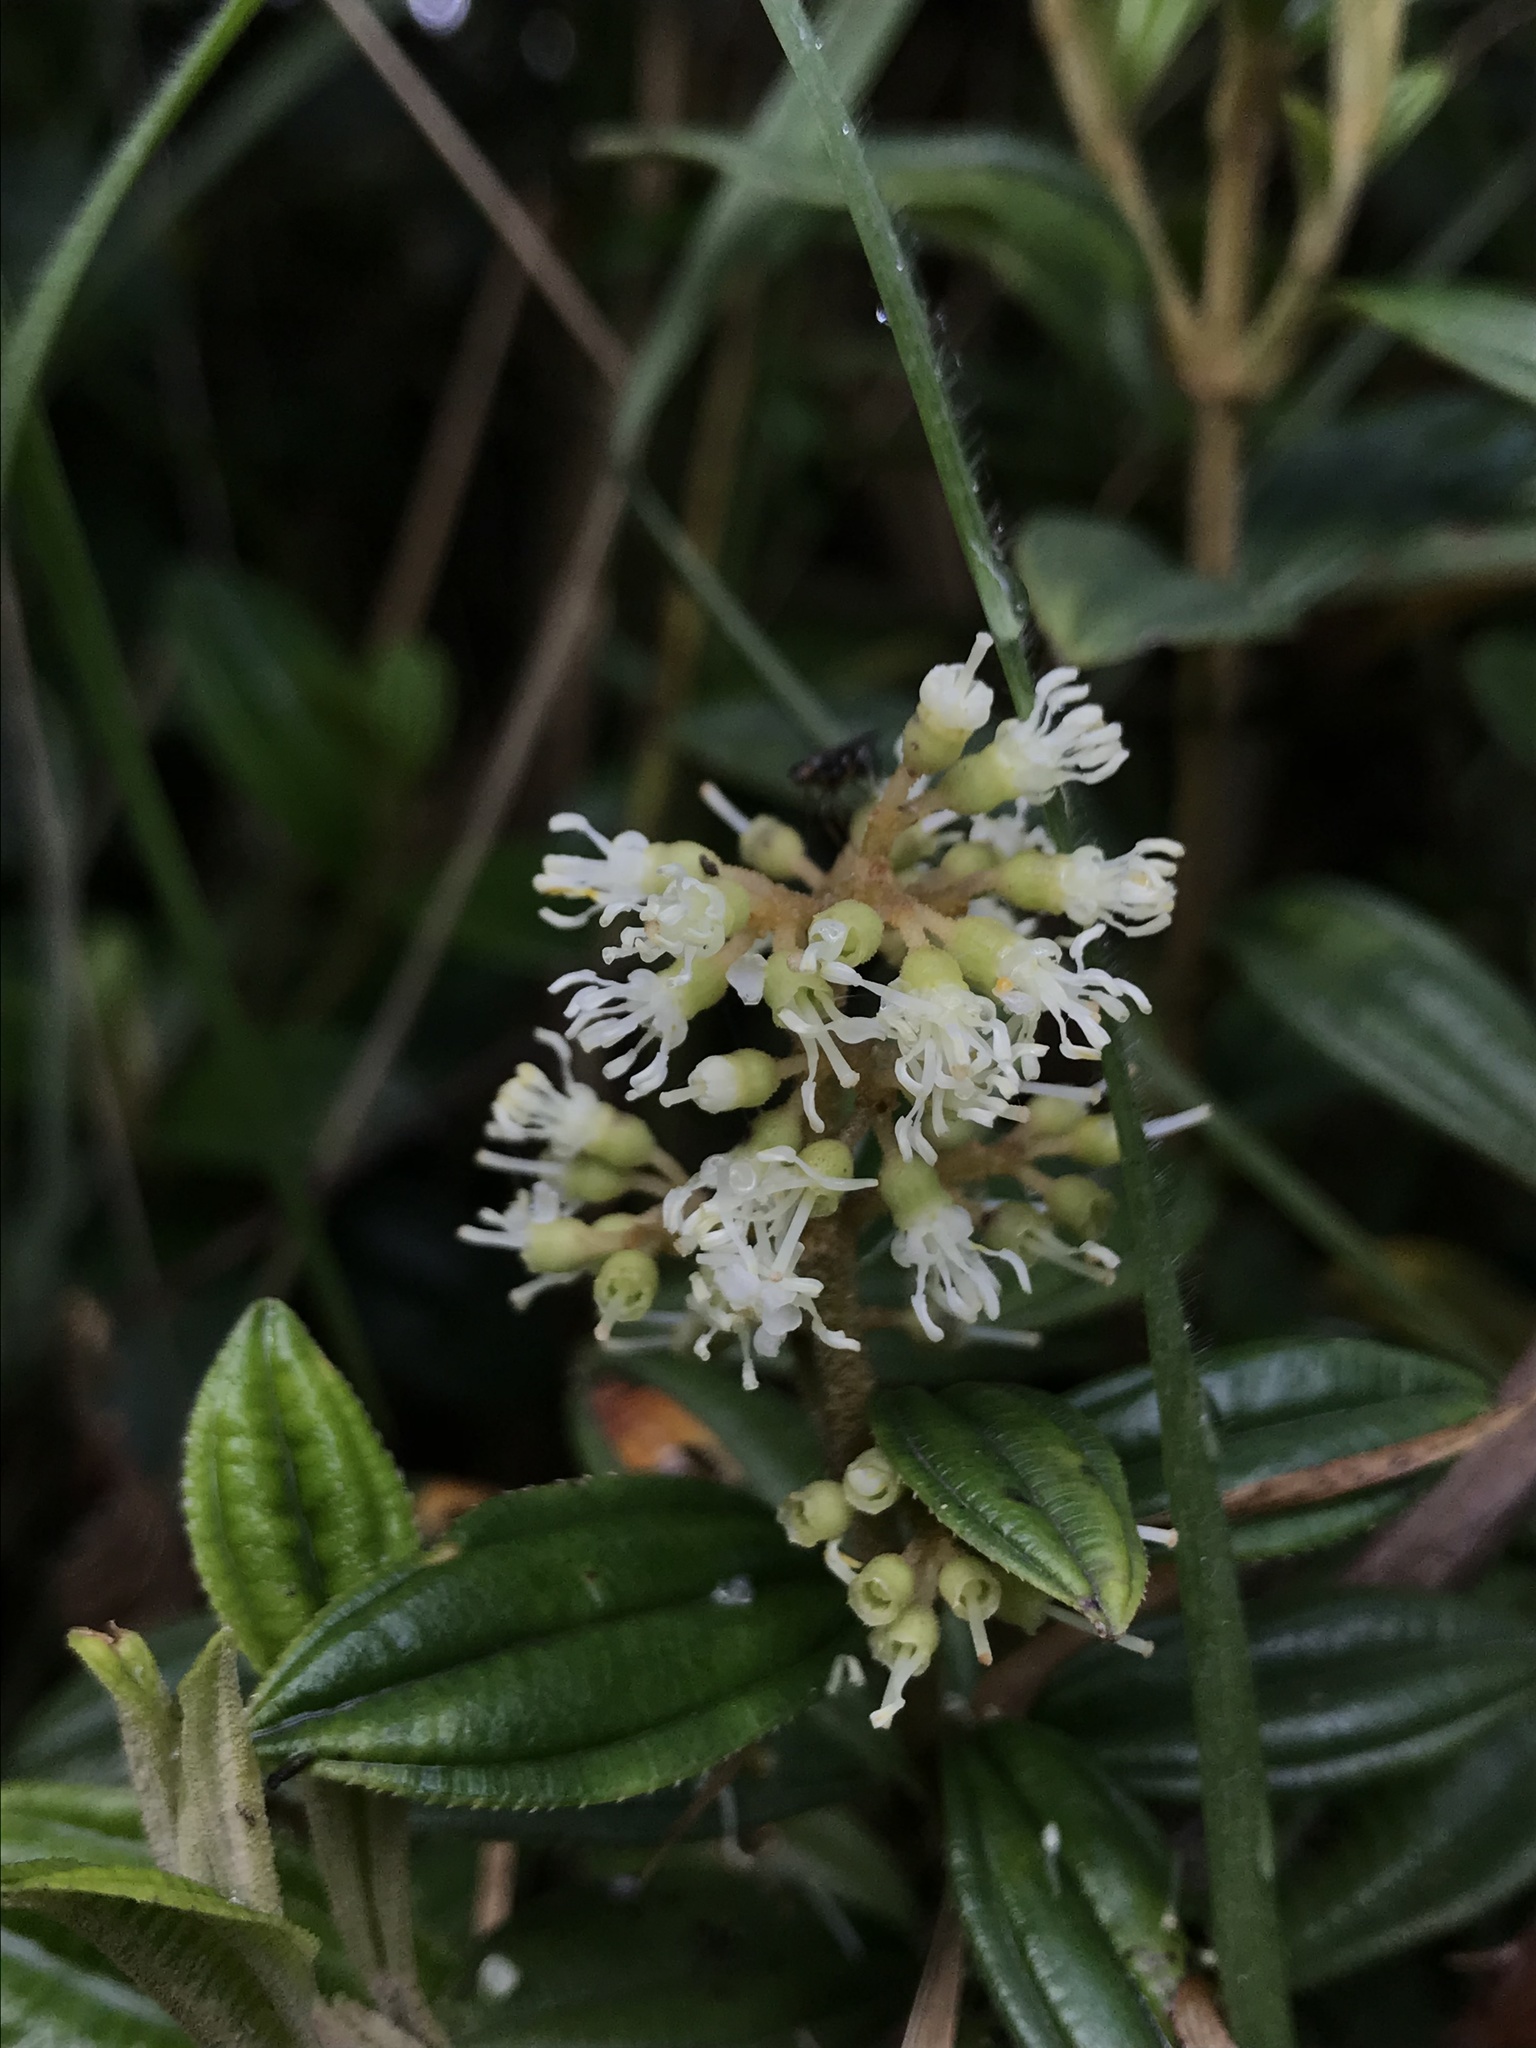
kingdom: Plantae
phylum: Tracheophyta
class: Magnoliopsida
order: Myrtales
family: Melastomataceae
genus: Miconia
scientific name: Miconia elaeoides
